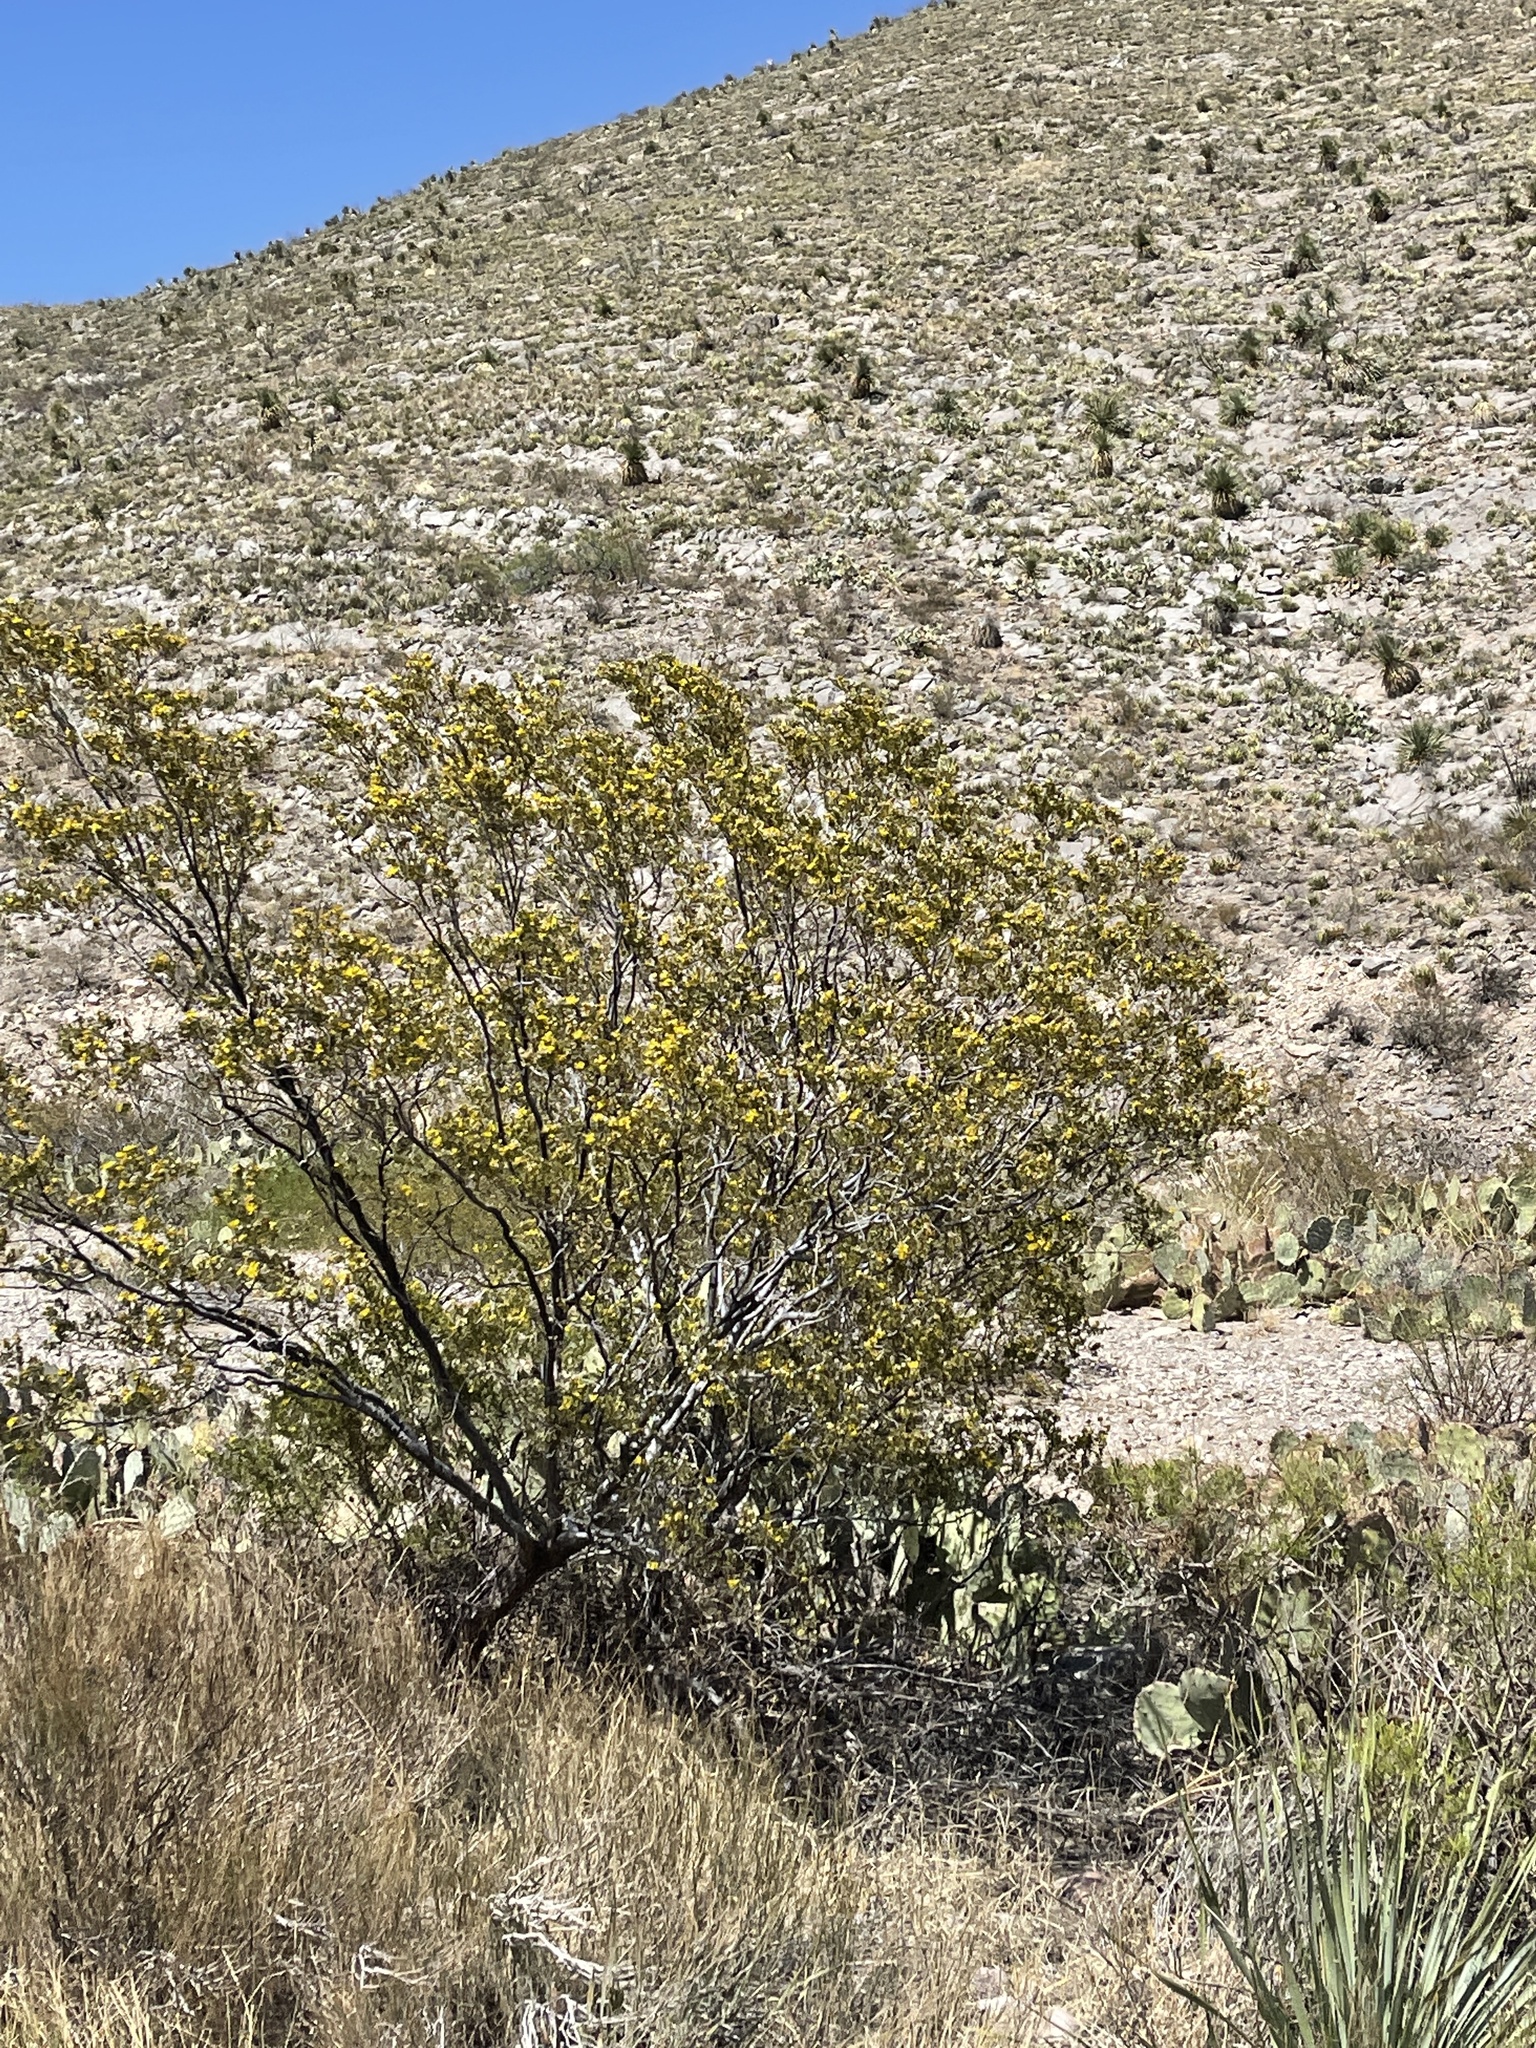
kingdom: Plantae
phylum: Tracheophyta
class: Magnoliopsida
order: Zygophyllales
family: Zygophyllaceae
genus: Larrea
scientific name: Larrea tridentata
